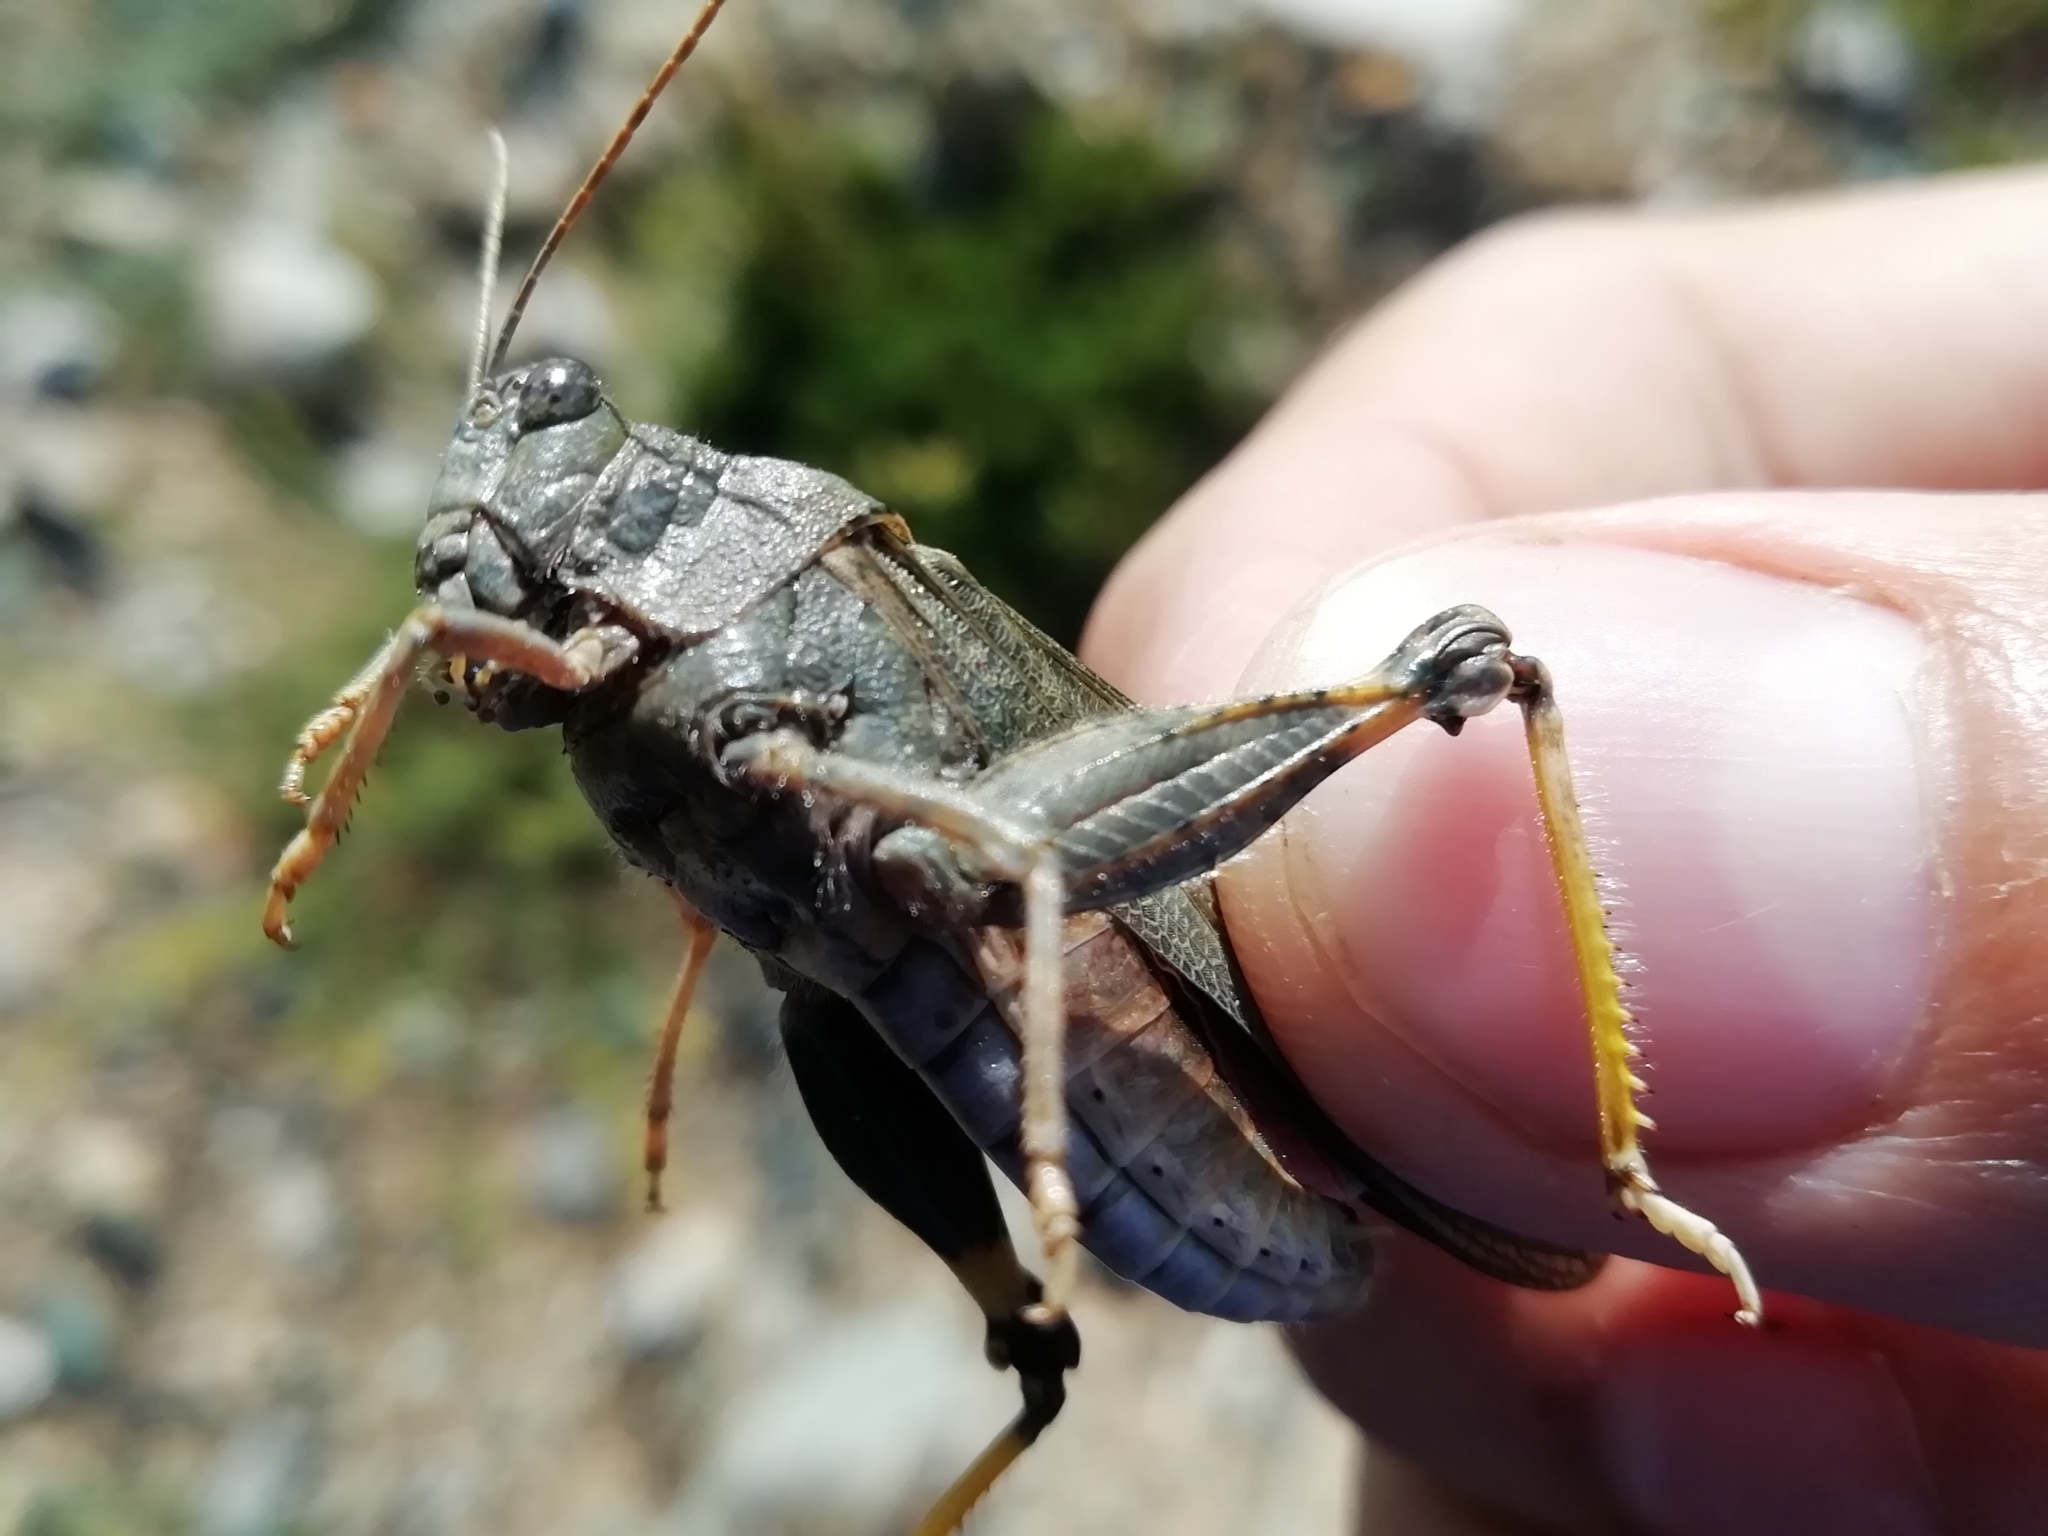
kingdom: Animalia
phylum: Arthropoda
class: Insecta
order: Orthoptera
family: Acrididae
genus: Bryodemella
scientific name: Bryodemella holdereri
